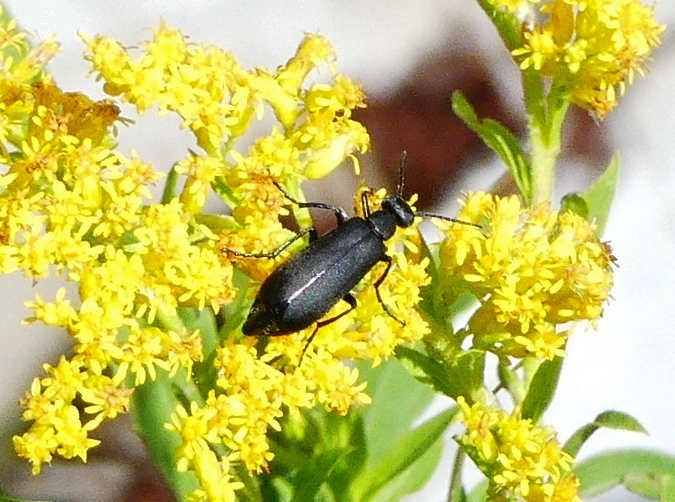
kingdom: Animalia
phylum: Arthropoda
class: Insecta
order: Coleoptera
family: Meloidae
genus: Epicauta
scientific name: Epicauta pensylvanica
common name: Black blister beetle
